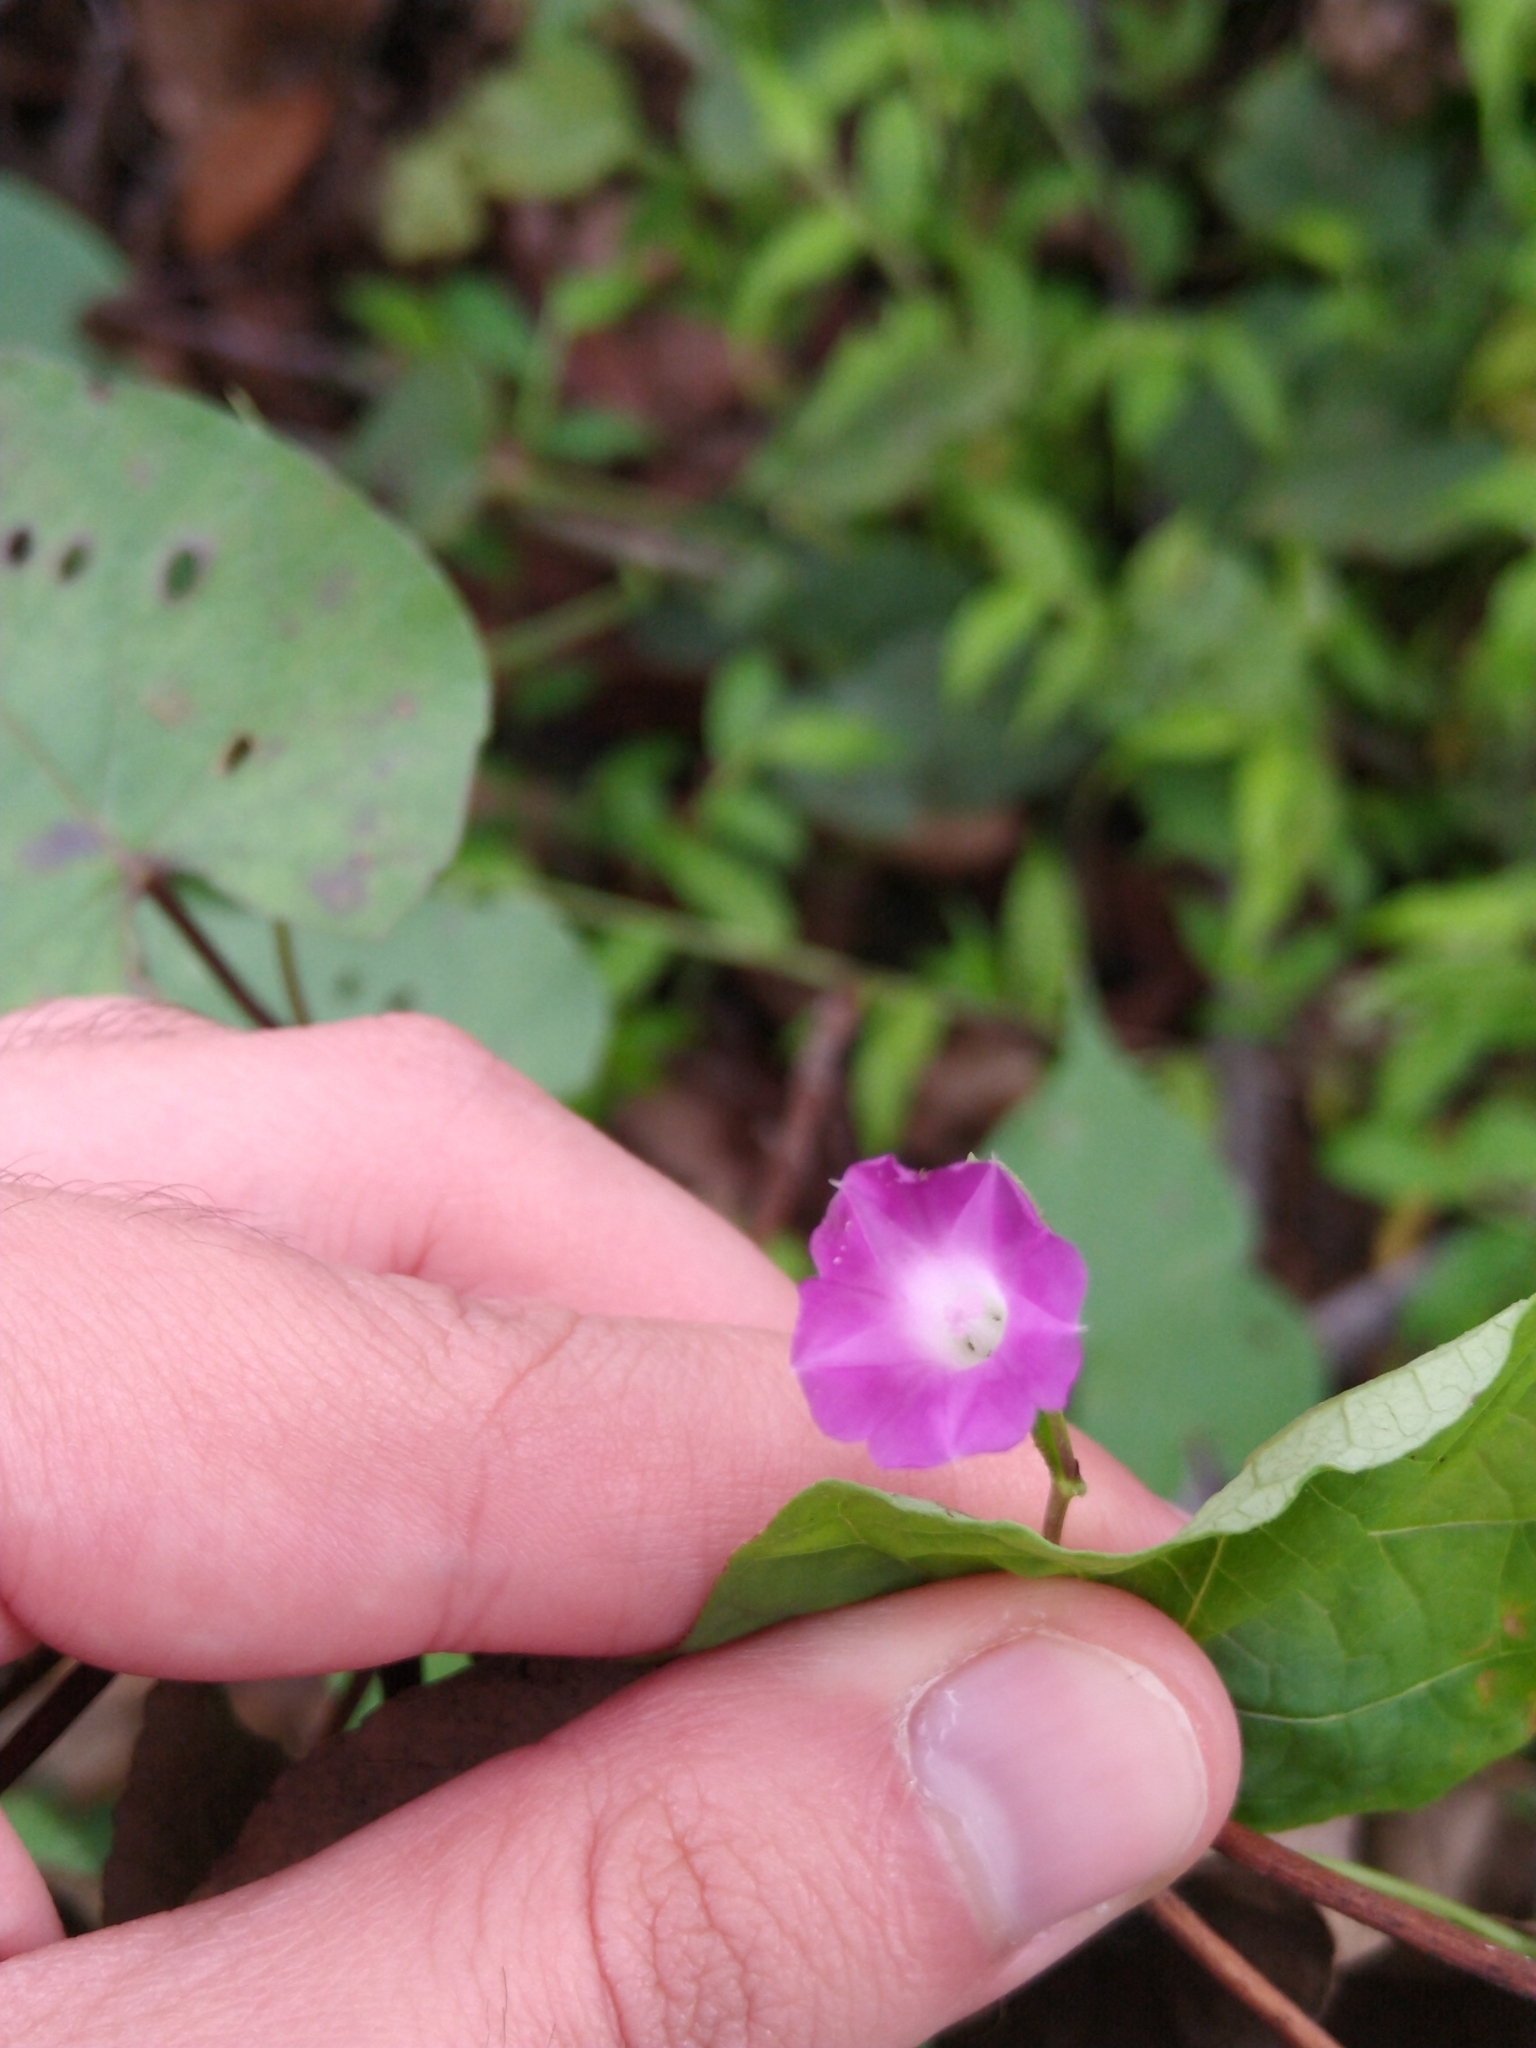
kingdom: Plantae
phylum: Tracheophyta
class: Magnoliopsida
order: Solanales
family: Convolvulaceae
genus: Ipomoea
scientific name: Ipomoea dumetorum
